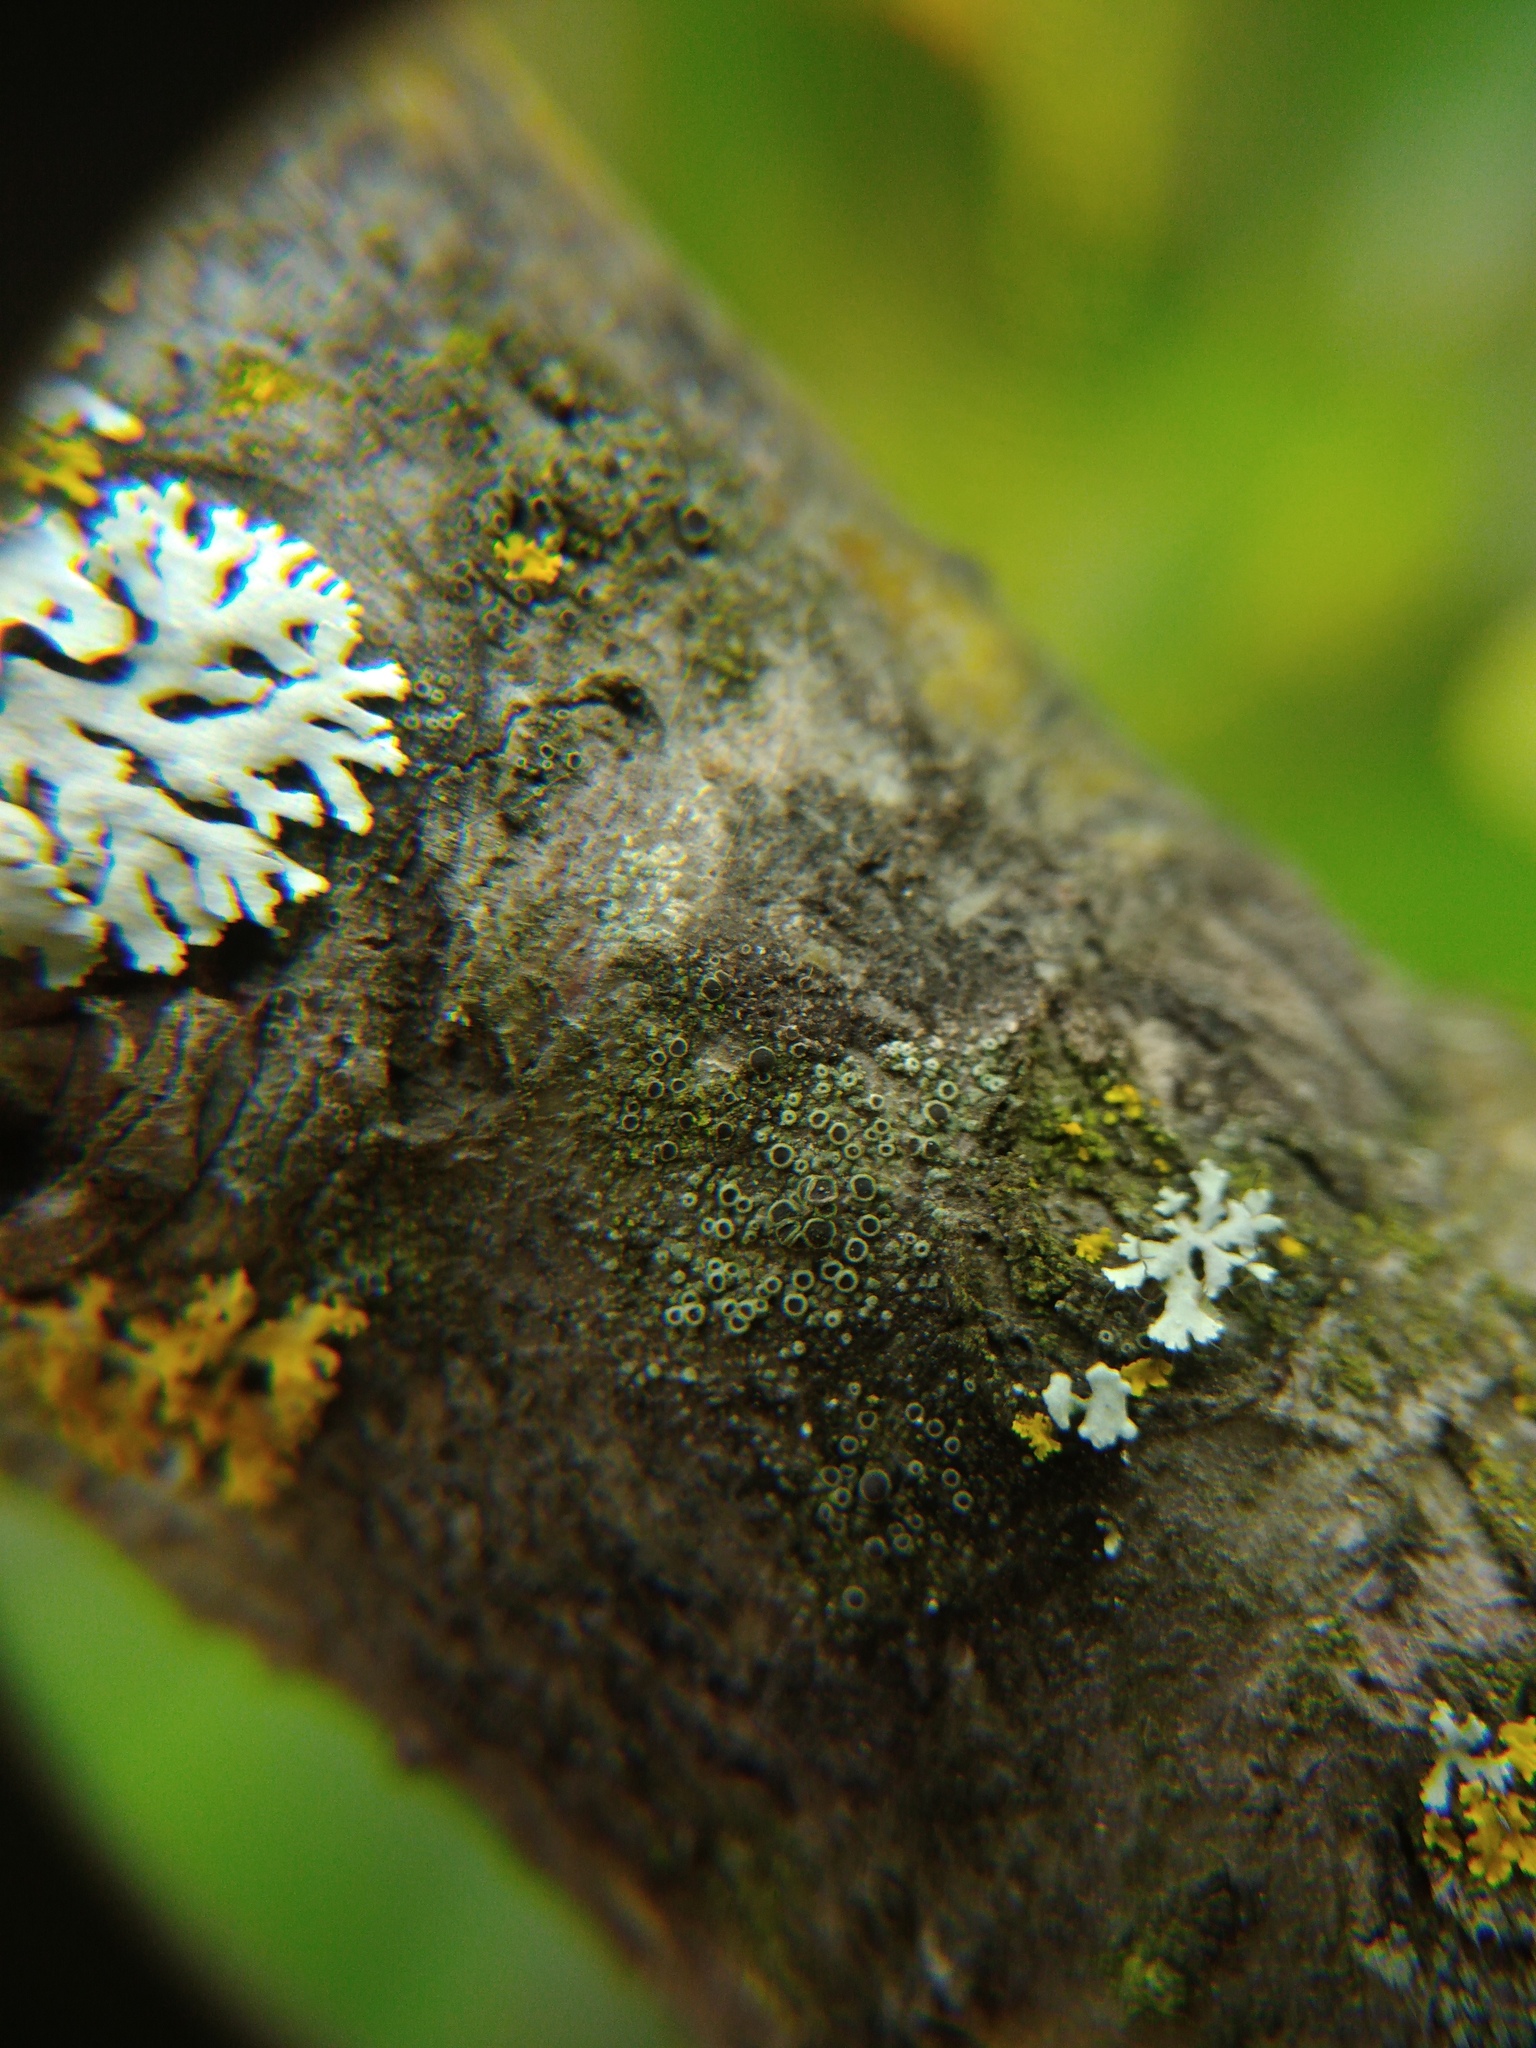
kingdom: Fungi
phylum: Ascomycota
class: Lecanoromycetes
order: Caliciales
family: Physciaceae
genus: Rinodina
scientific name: Rinodina pyrina
